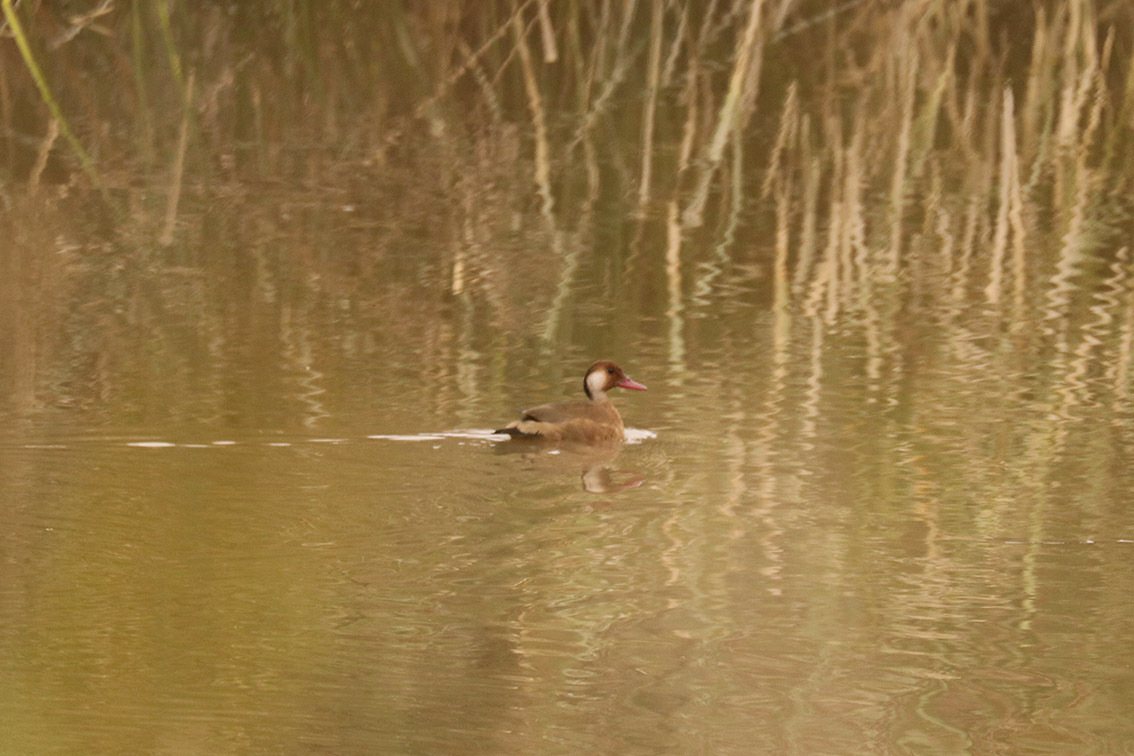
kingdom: Animalia
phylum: Chordata
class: Aves
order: Anseriformes
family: Anatidae
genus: Amazonetta
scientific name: Amazonetta brasiliensis
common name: Brazilian teal
